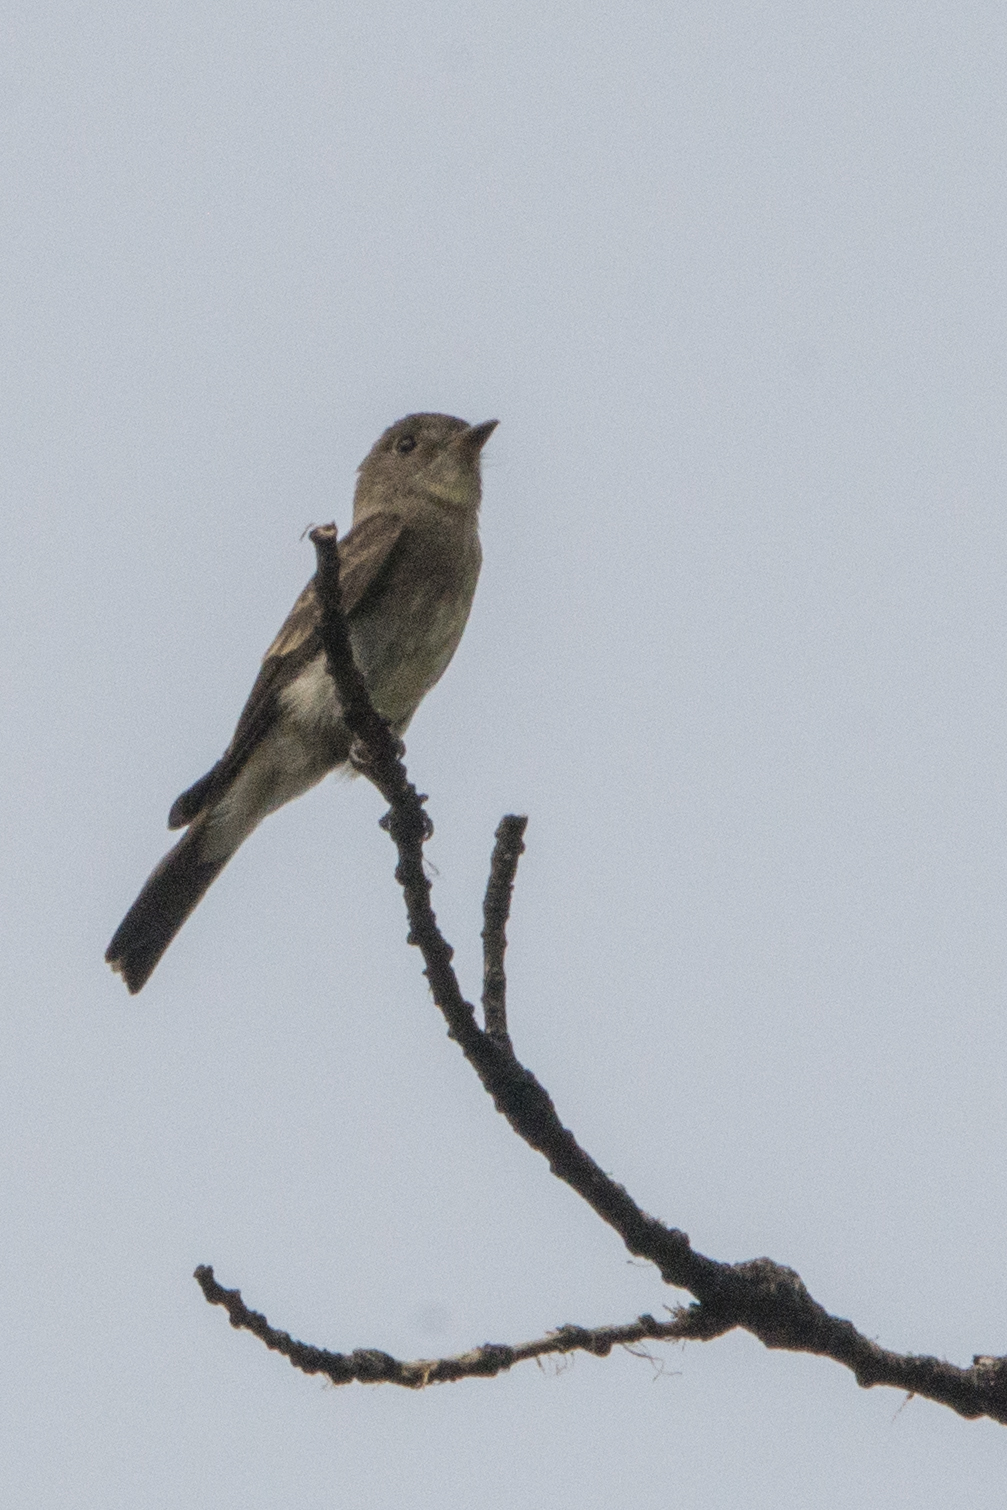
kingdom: Animalia
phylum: Chordata
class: Aves
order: Passeriformes
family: Tyrannidae
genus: Contopus
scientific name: Contopus sordidulus
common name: Western wood-pewee
